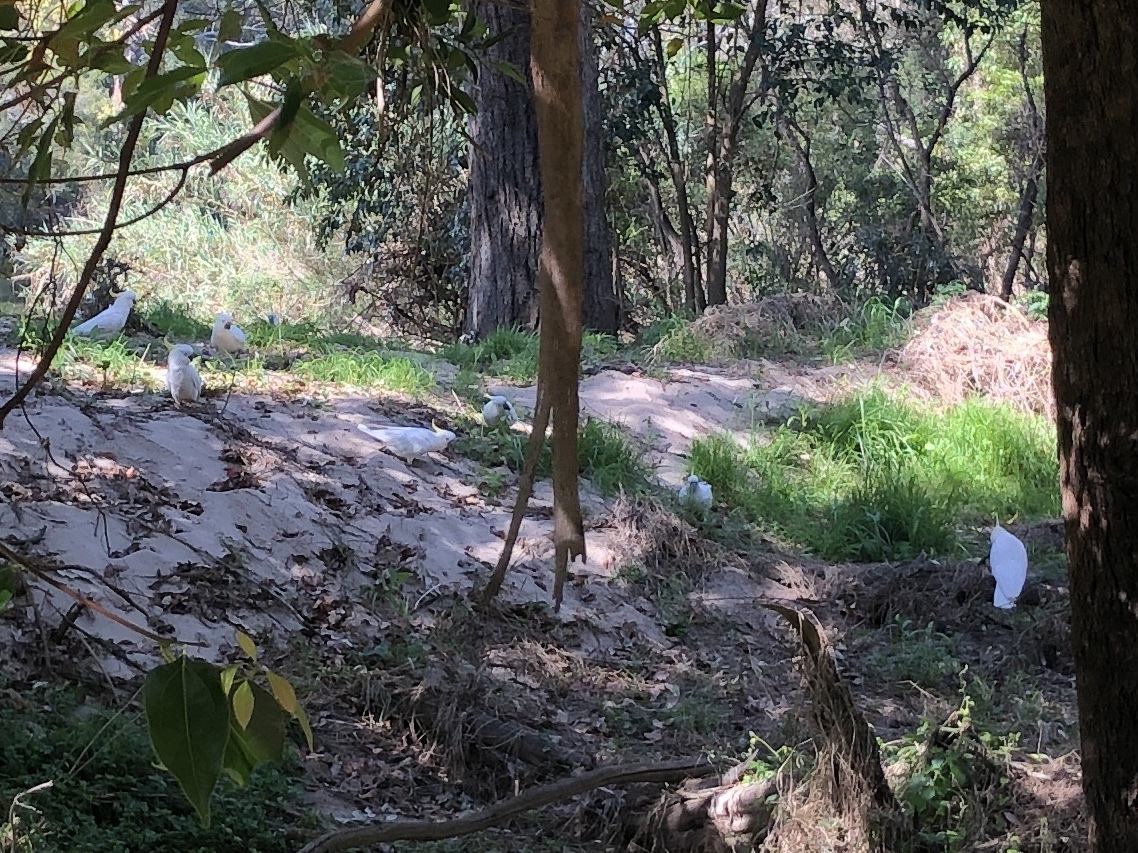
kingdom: Animalia
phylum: Chordata
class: Aves
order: Psittaciformes
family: Psittacidae
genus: Cacatua
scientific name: Cacatua galerita
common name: Sulphur-crested cockatoo
